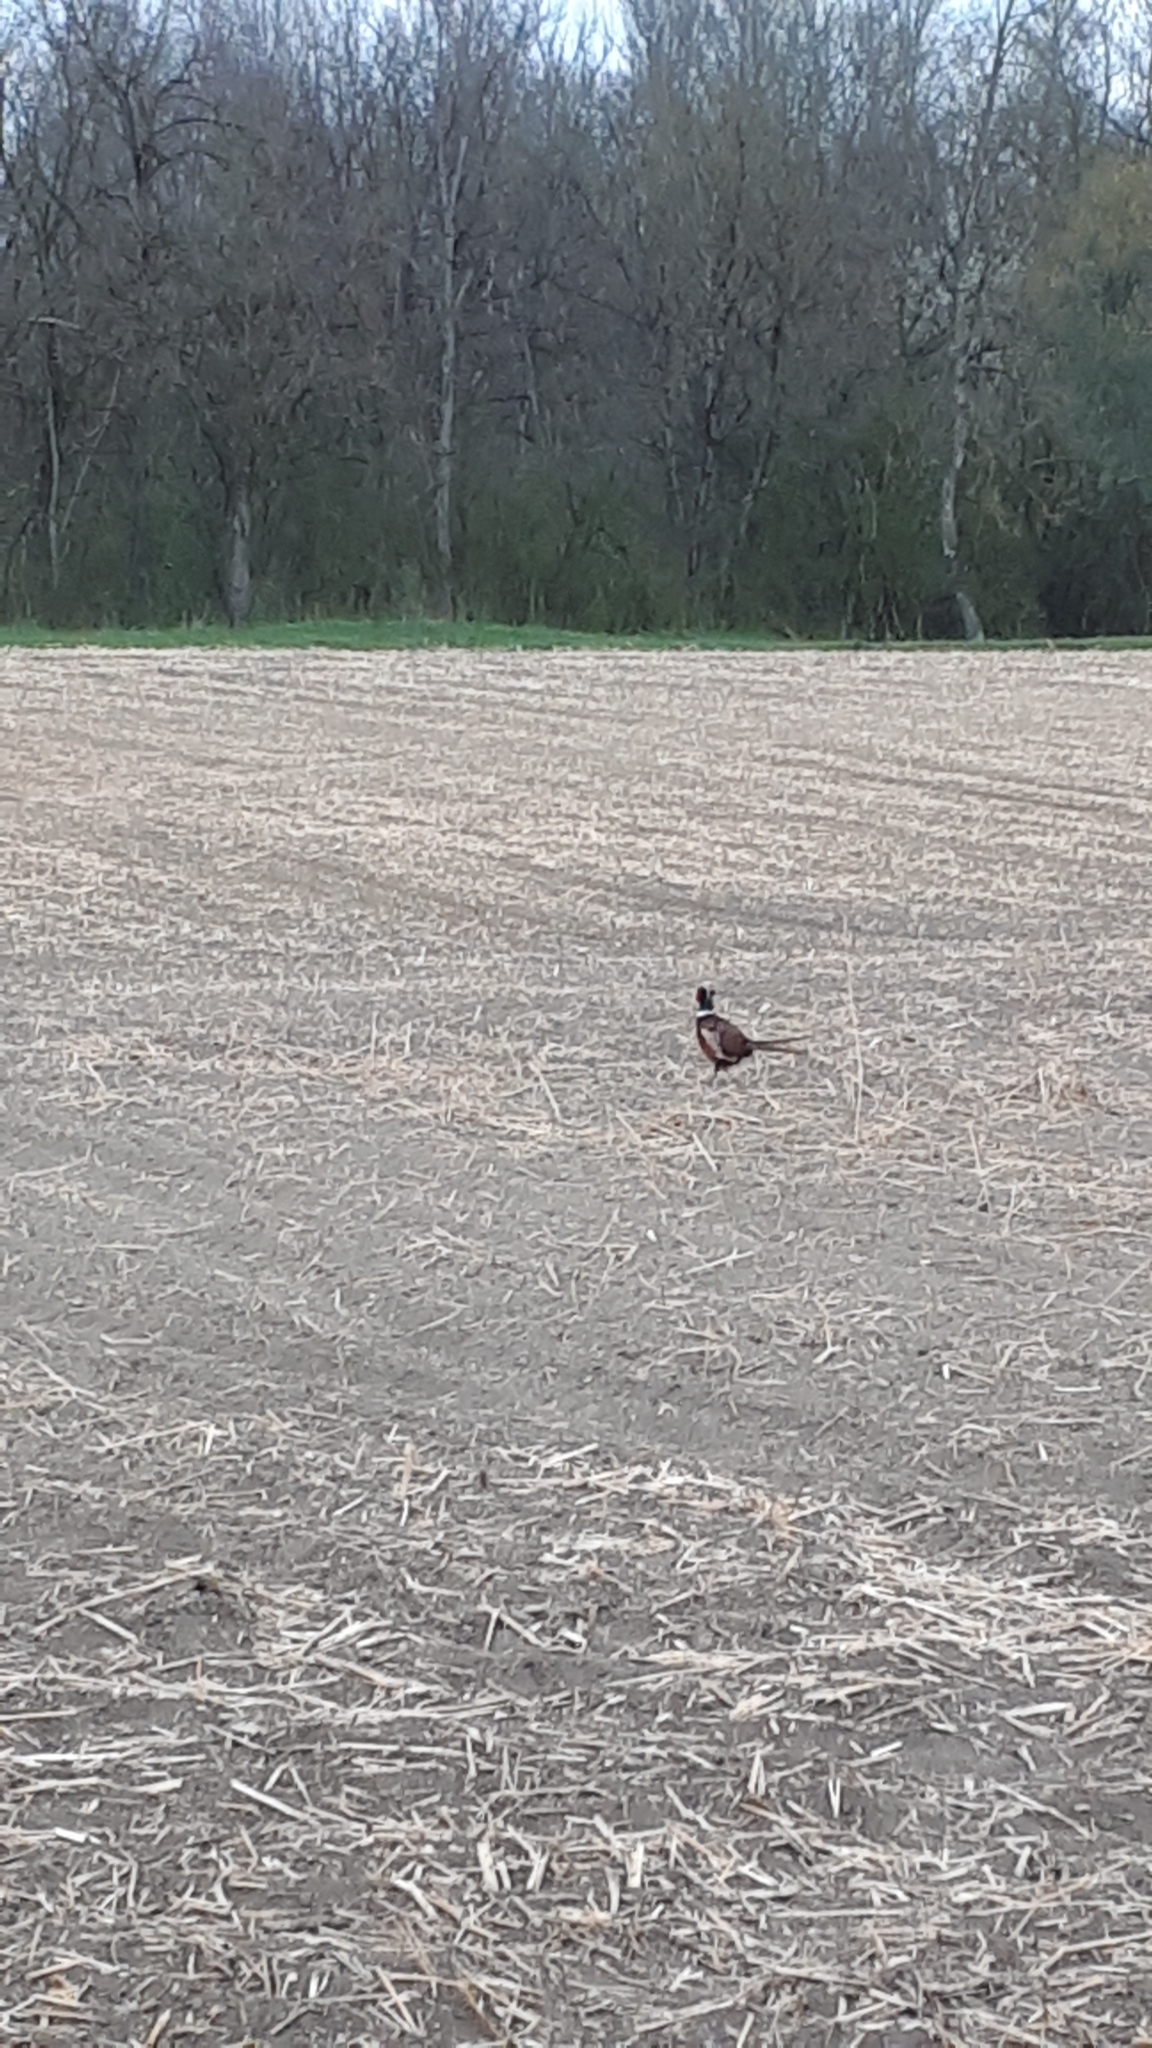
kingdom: Animalia
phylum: Chordata
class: Aves
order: Galliformes
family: Phasianidae
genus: Phasianus
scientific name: Phasianus colchicus
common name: Common pheasant
